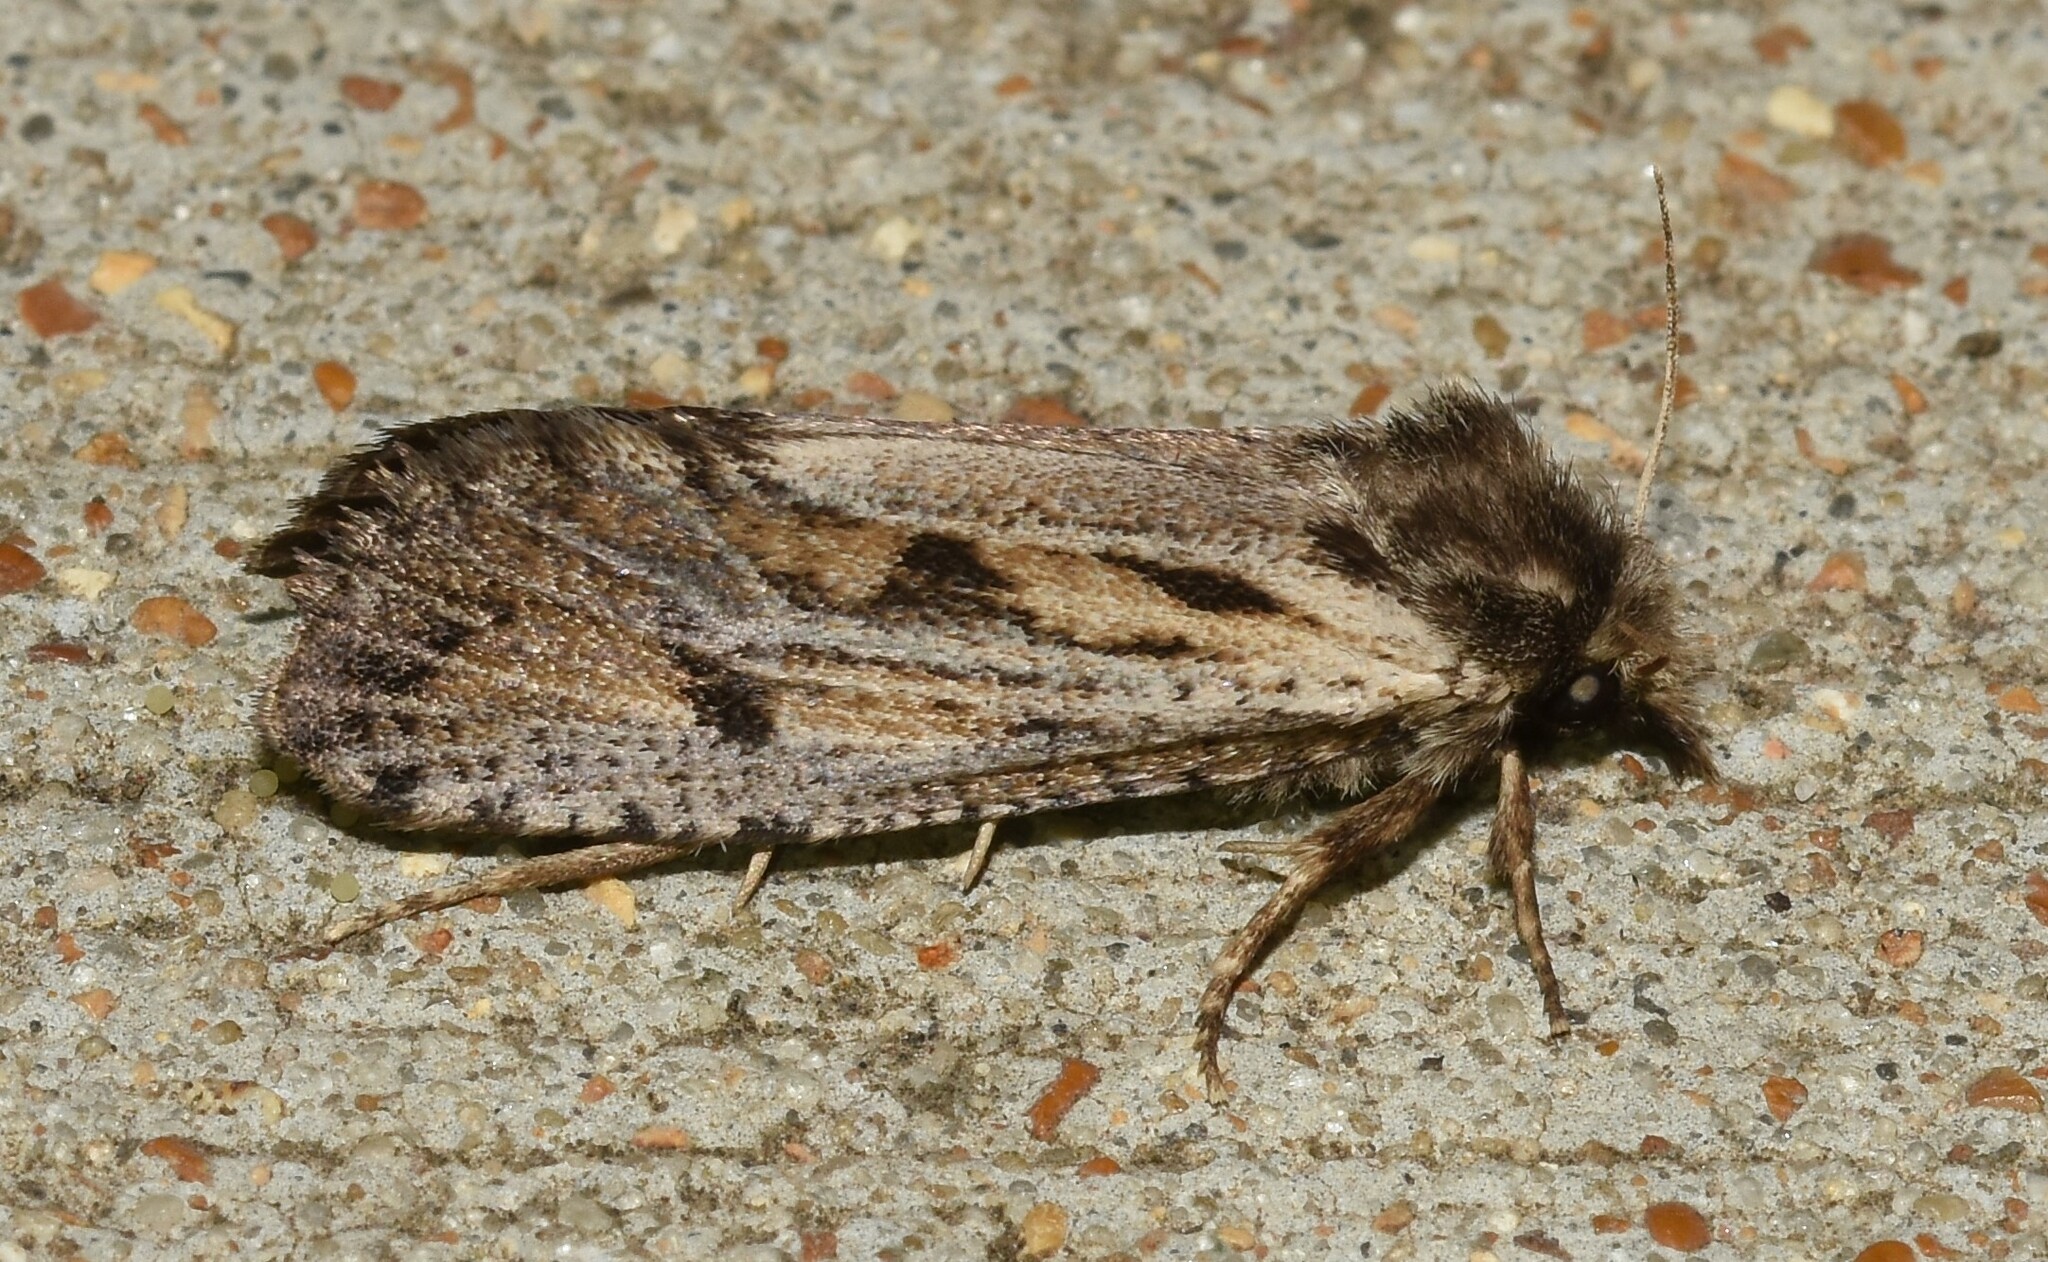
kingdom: Animalia
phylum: Arthropoda
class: Insecta
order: Lepidoptera
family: Tineidae
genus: Acrolophus
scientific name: Acrolophus popeanella
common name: Clemens' grass tubeworm moth
